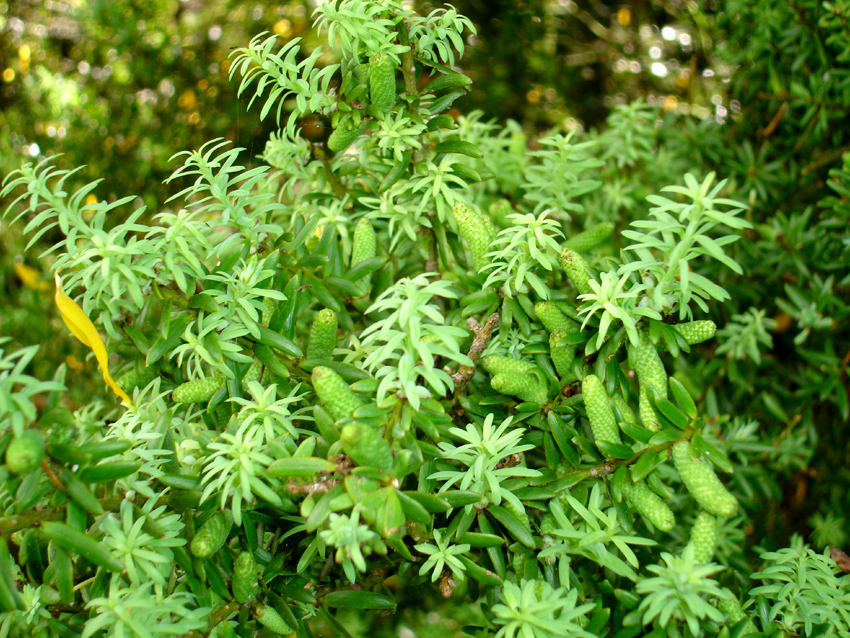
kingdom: Plantae
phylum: Tracheophyta
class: Pinopsida
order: Pinales
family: Podocarpaceae
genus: Podocarpus
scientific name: Podocarpus totara
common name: Totara
